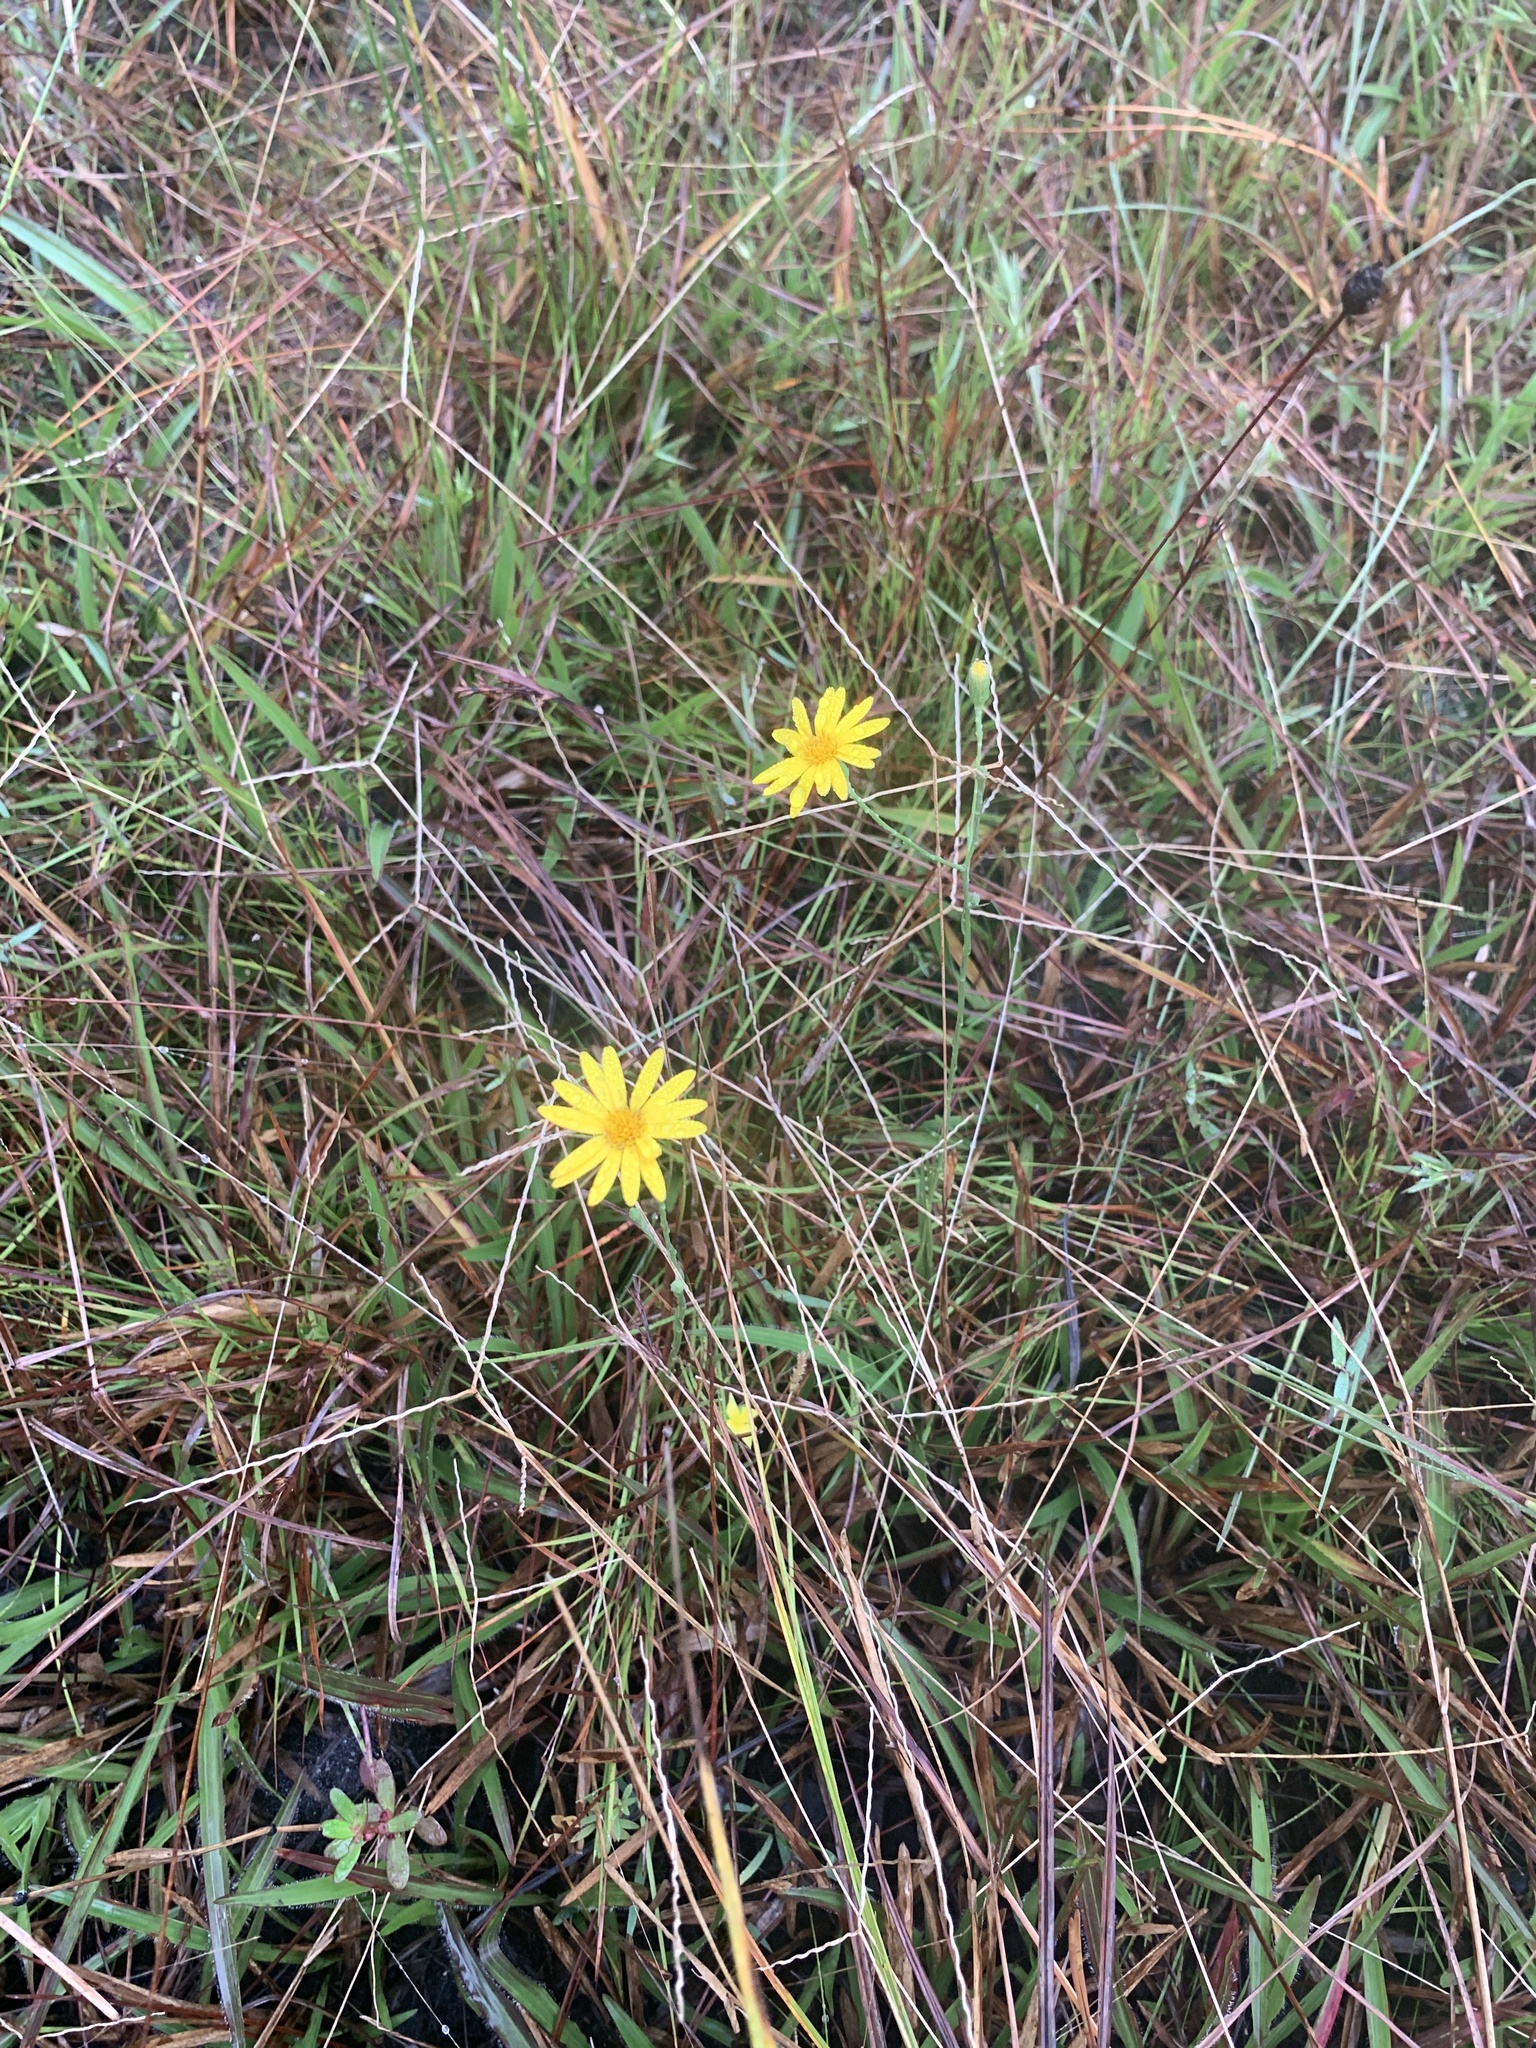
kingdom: Plantae
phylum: Tracheophyta
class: Magnoliopsida
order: Asterales
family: Asteraceae
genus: Pityopsis
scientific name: Pityopsis graminifolia
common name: Grass-leaf golden-aster
